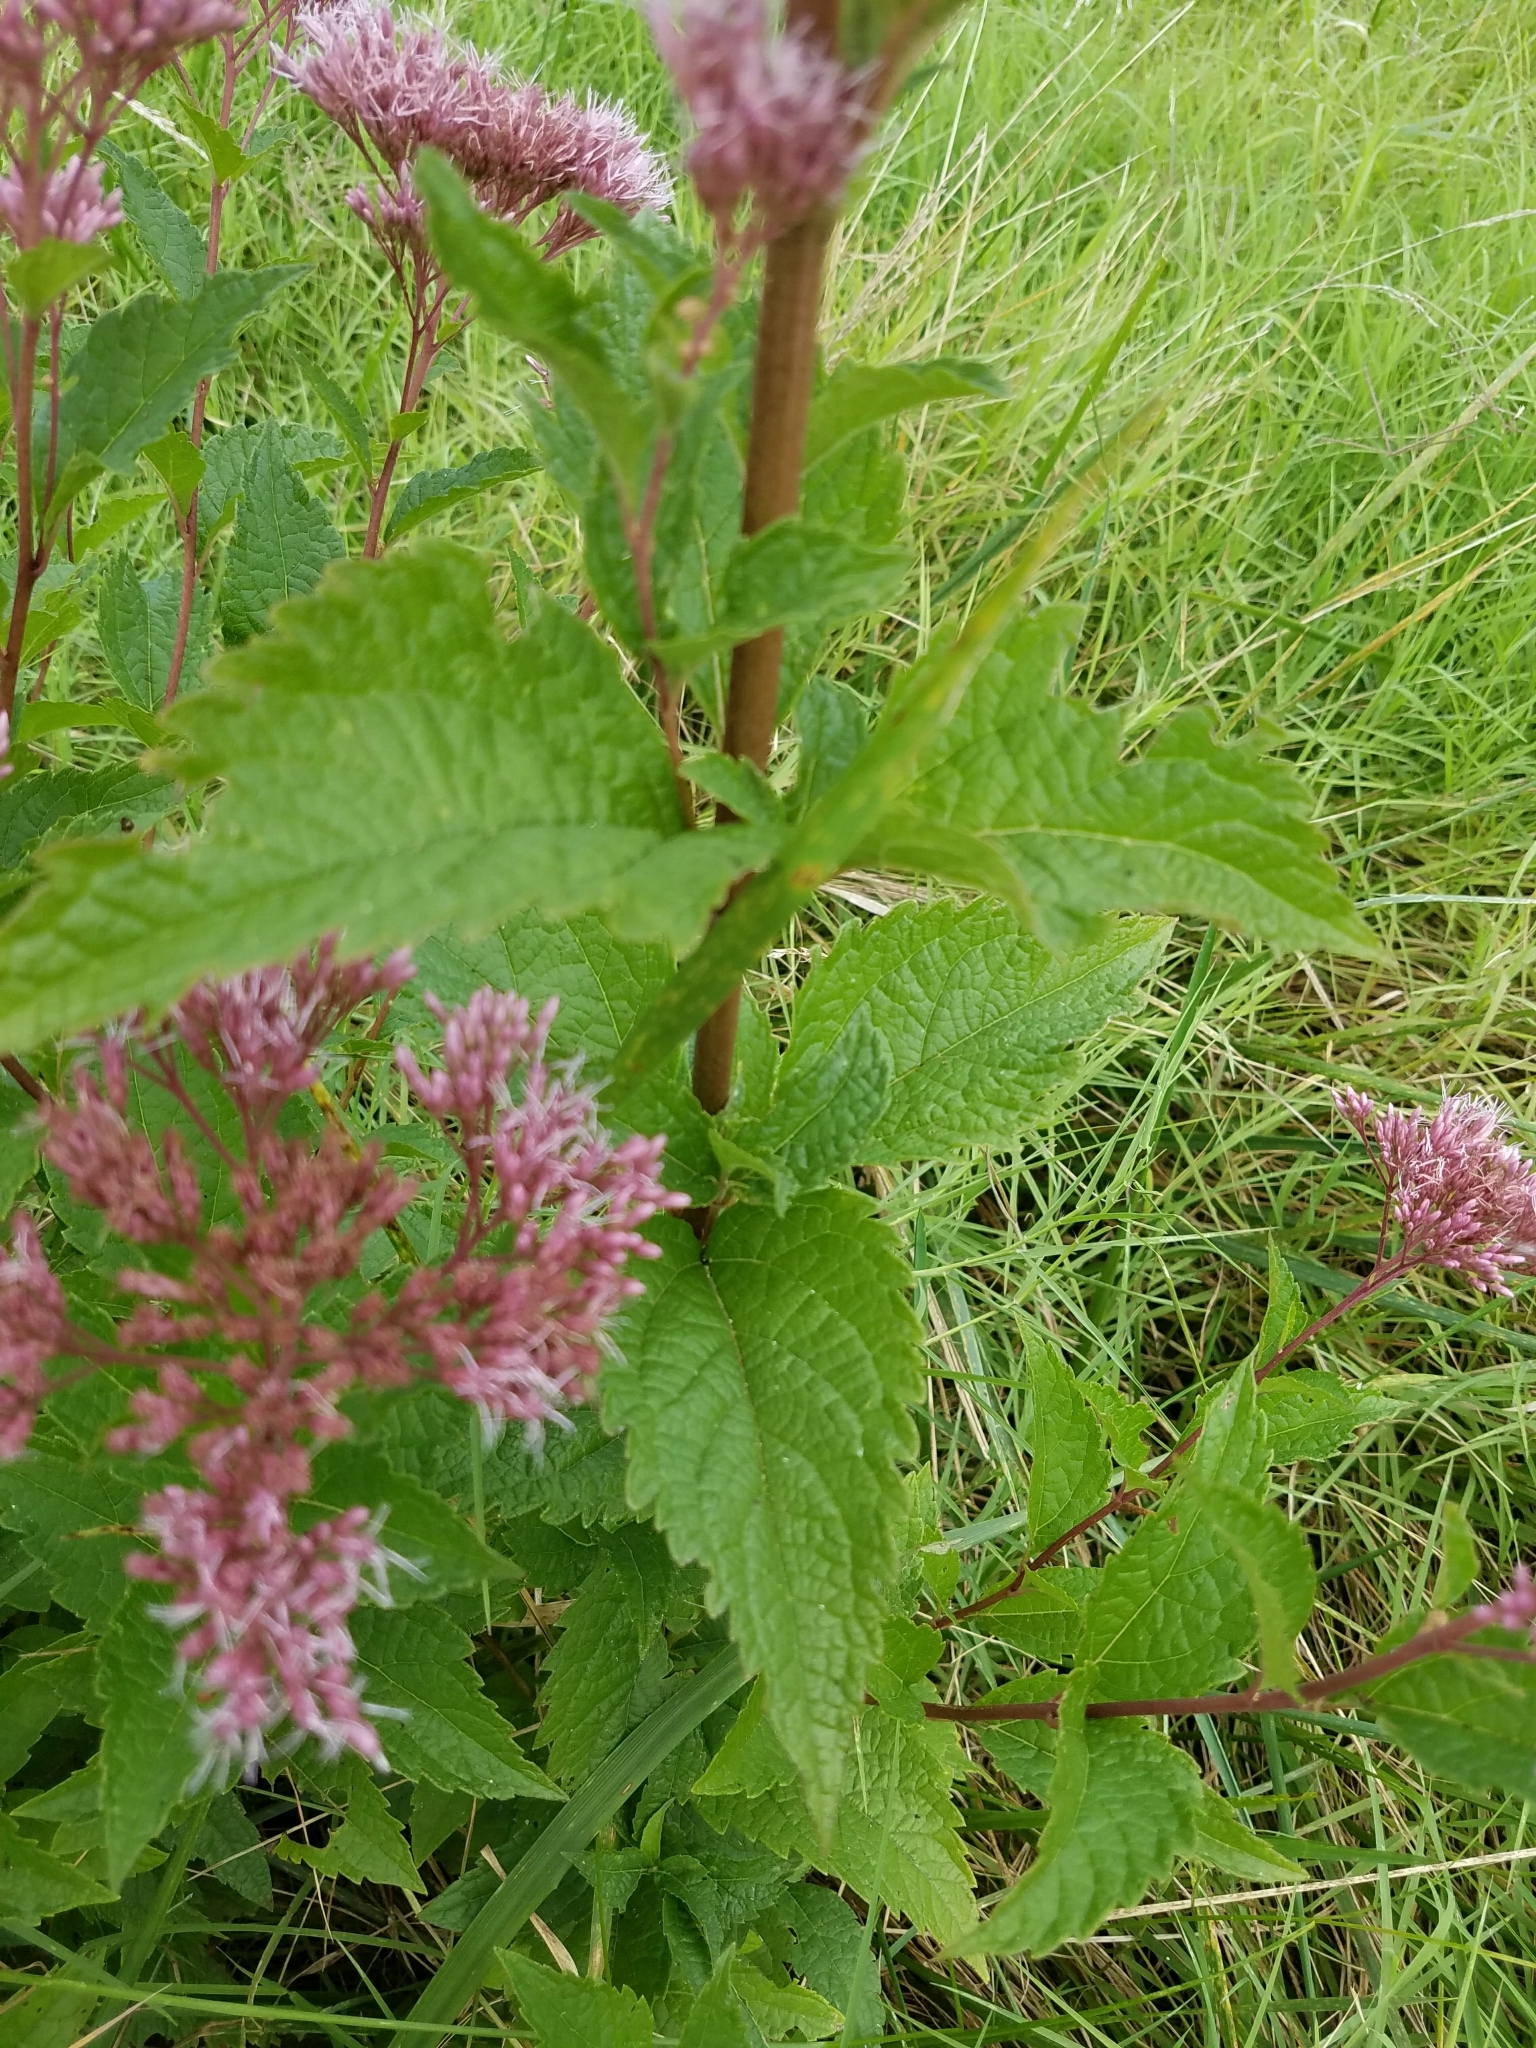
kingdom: Plantae
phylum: Tracheophyta
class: Magnoliopsida
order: Asterales
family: Asteraceae
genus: Eutrochium
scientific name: Eutrochium dubium
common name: Coastal plain joe pye weed
